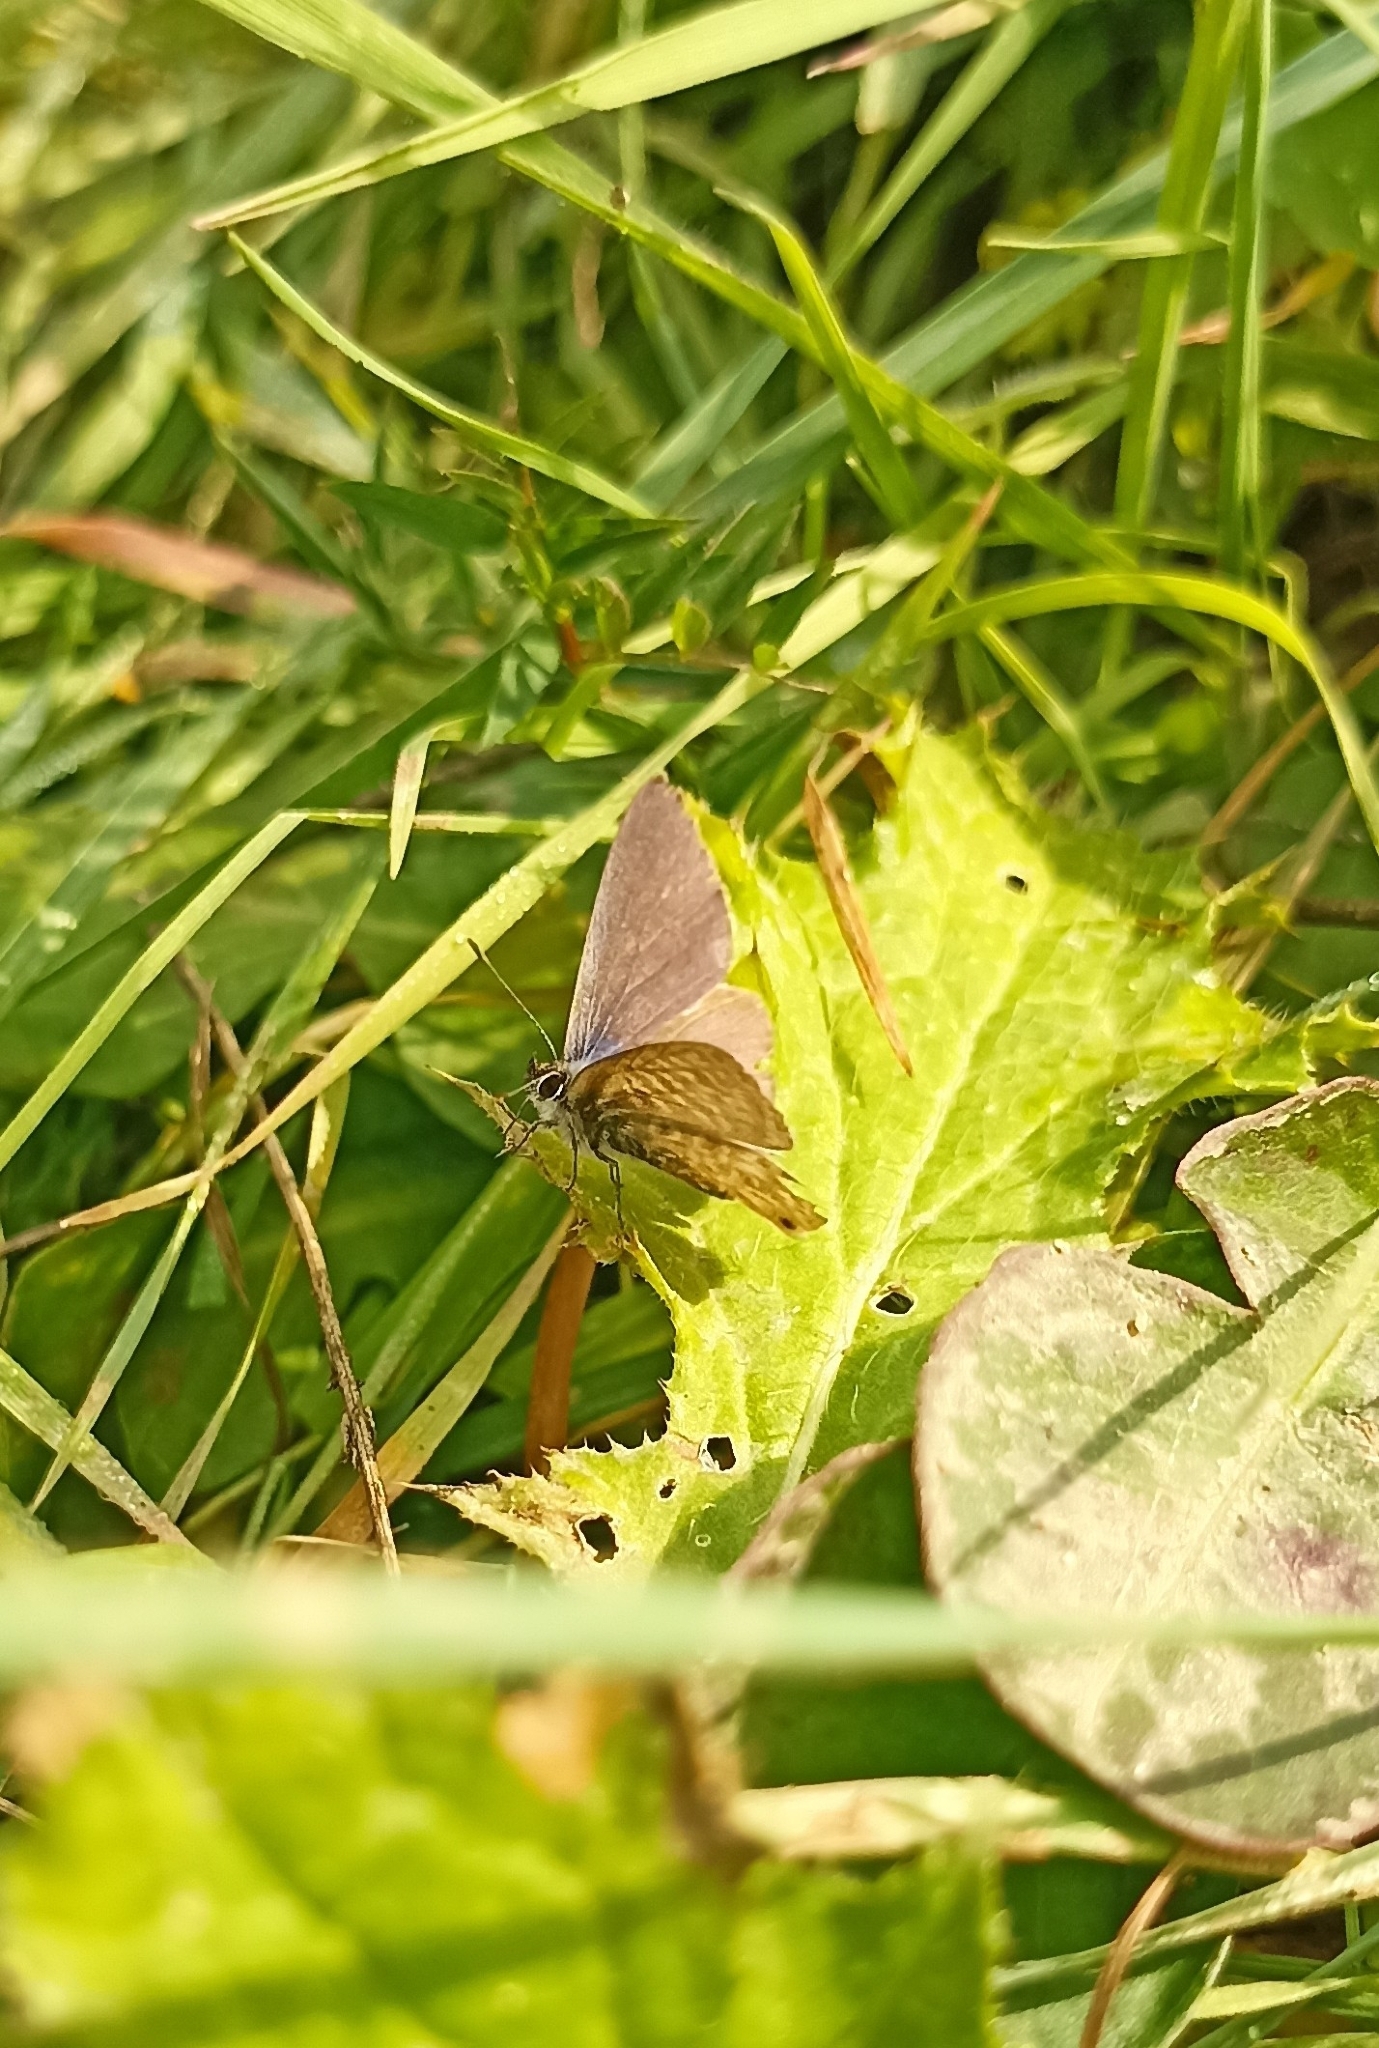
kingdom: Animalia
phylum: Arthropoda
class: Insecta
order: Lepidoptera
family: Lycaenidae
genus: Leptotes
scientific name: Leptotes pirithous
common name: Lang's short-tailed blue
